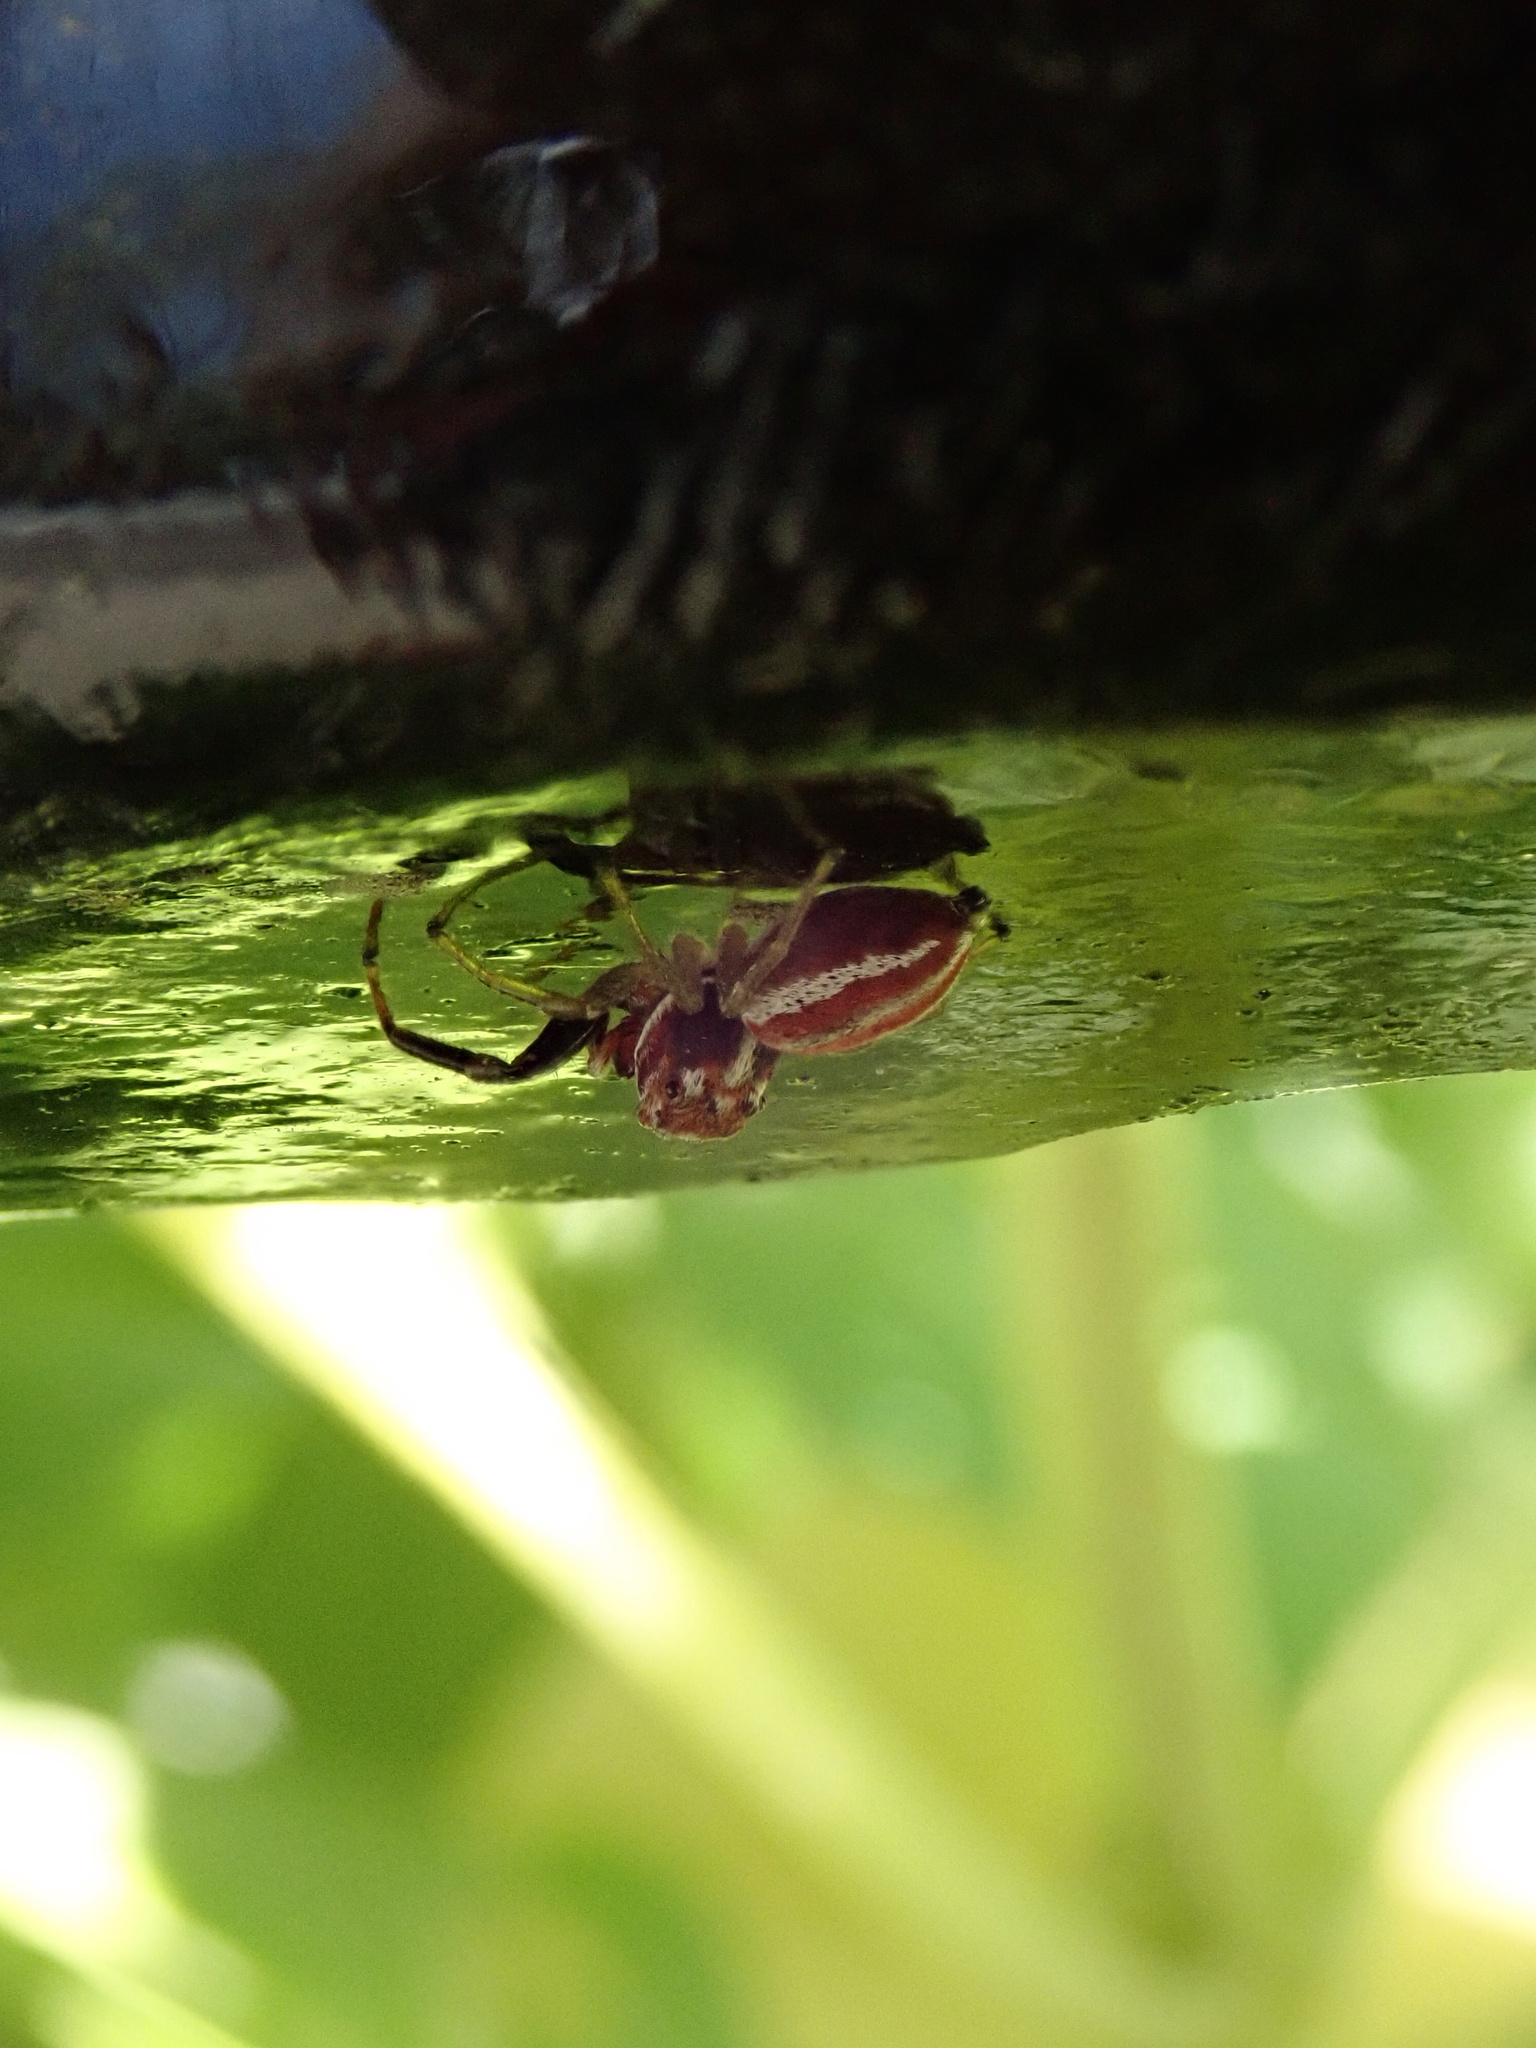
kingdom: Animalia
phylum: Arthropoda
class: Arachnida
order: Araneae
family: Salticidae
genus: Icius
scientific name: Icius hamatus
